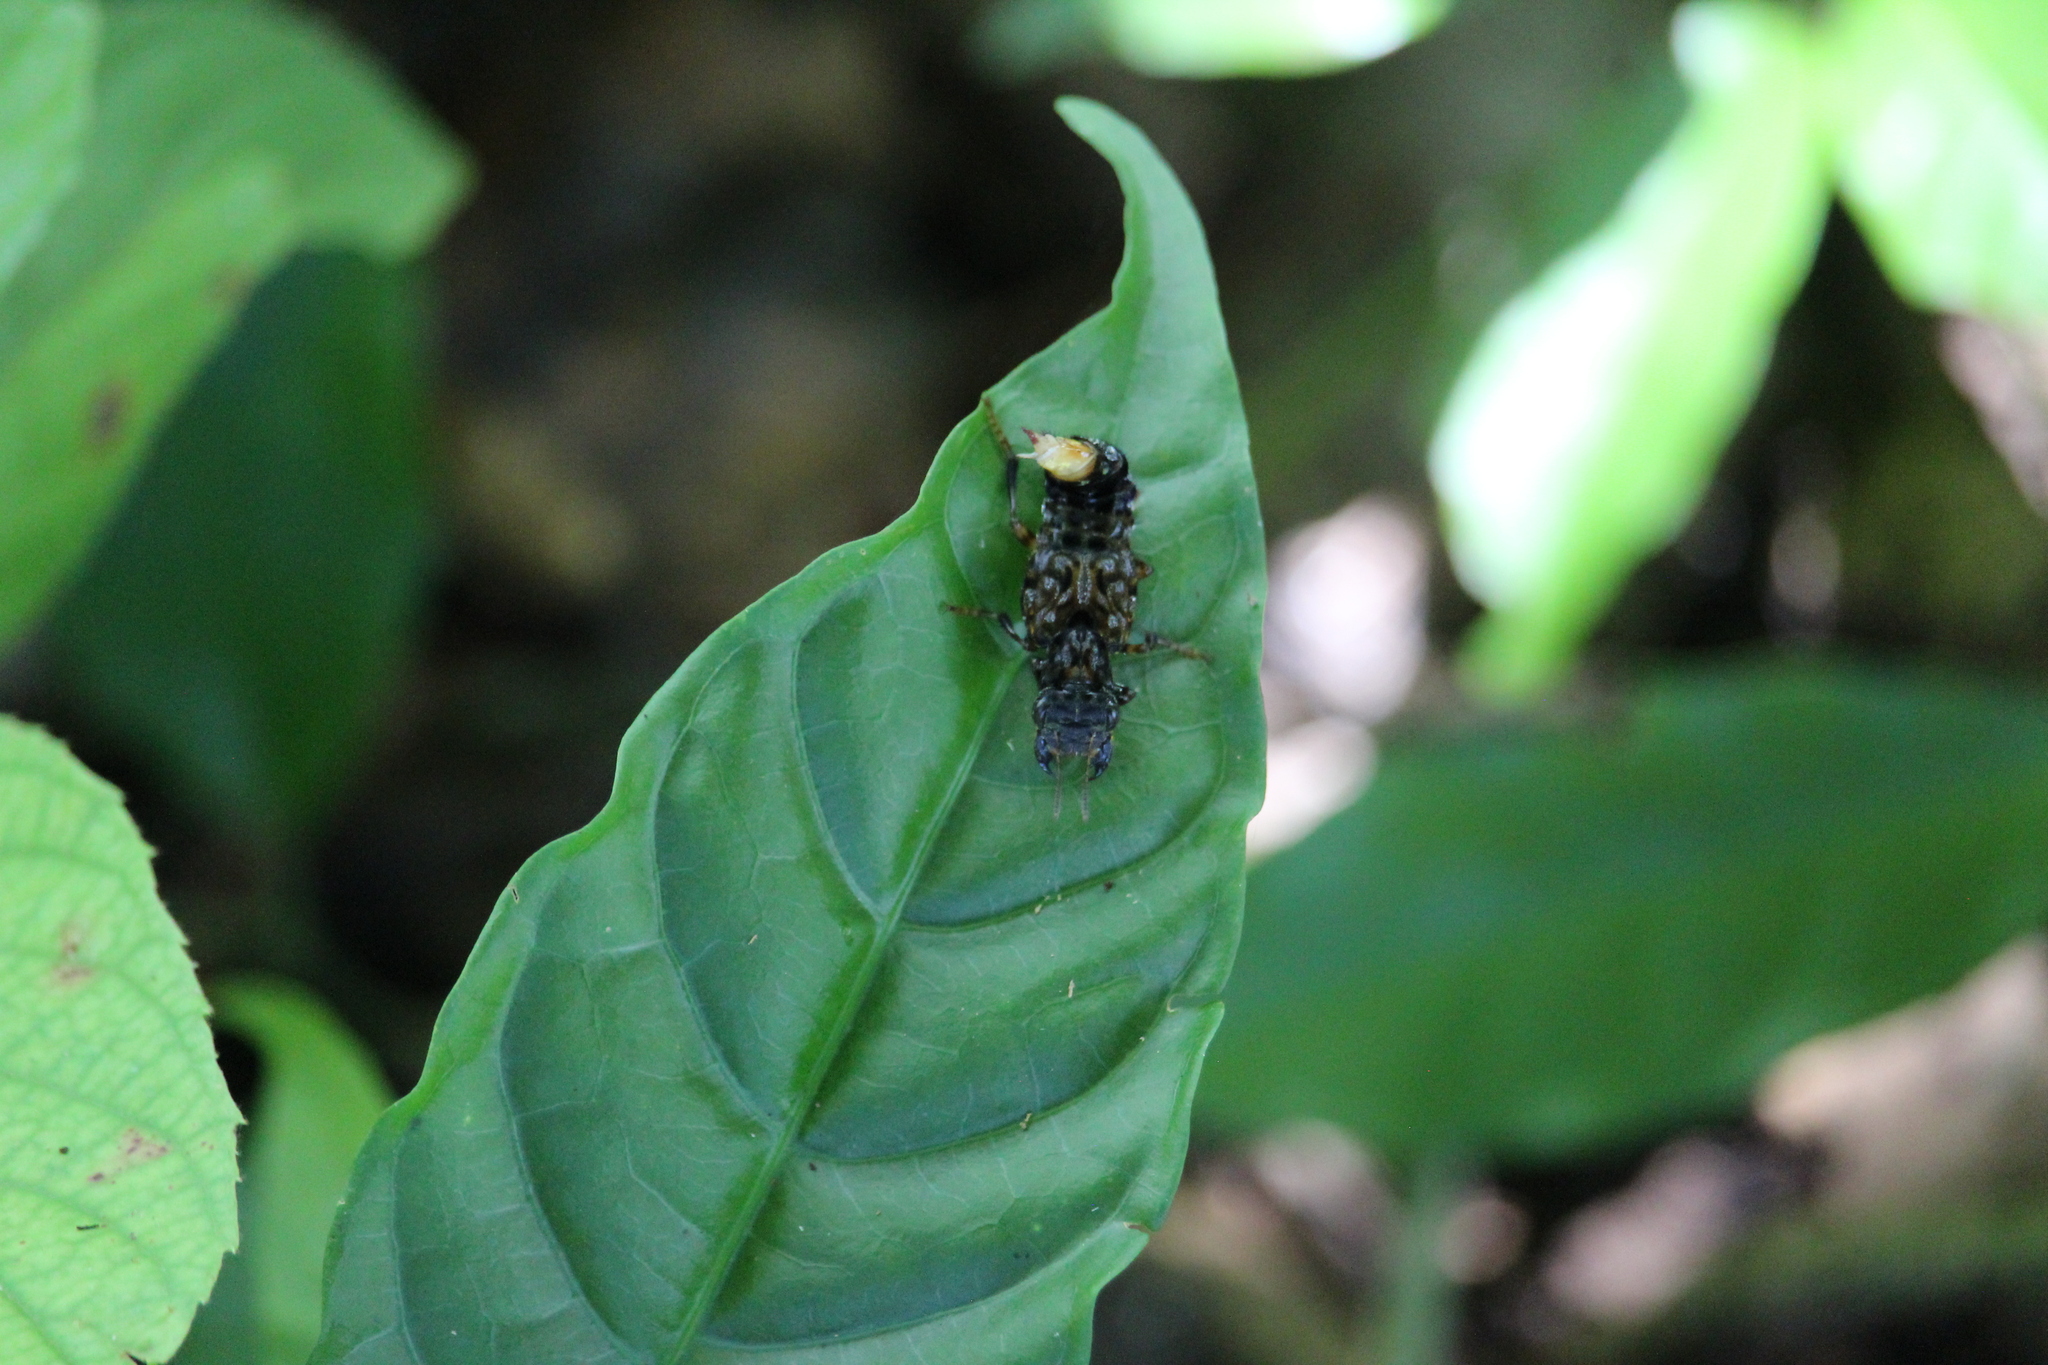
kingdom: Animalia
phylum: Arthropoda
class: Insecta
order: Coleoptera
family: Staphylinidae
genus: Leistotrophus
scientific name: Leistotrophus versicolor
